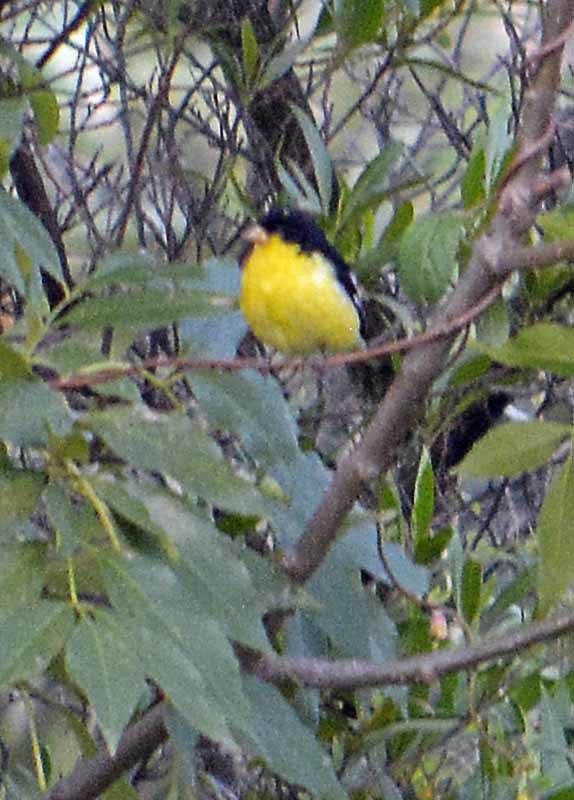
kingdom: Animalia
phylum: Chordata
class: Aves
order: Passeriformes
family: Fringillidae
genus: Spinus
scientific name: Spinus psaltria
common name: Lesser goldfinch
